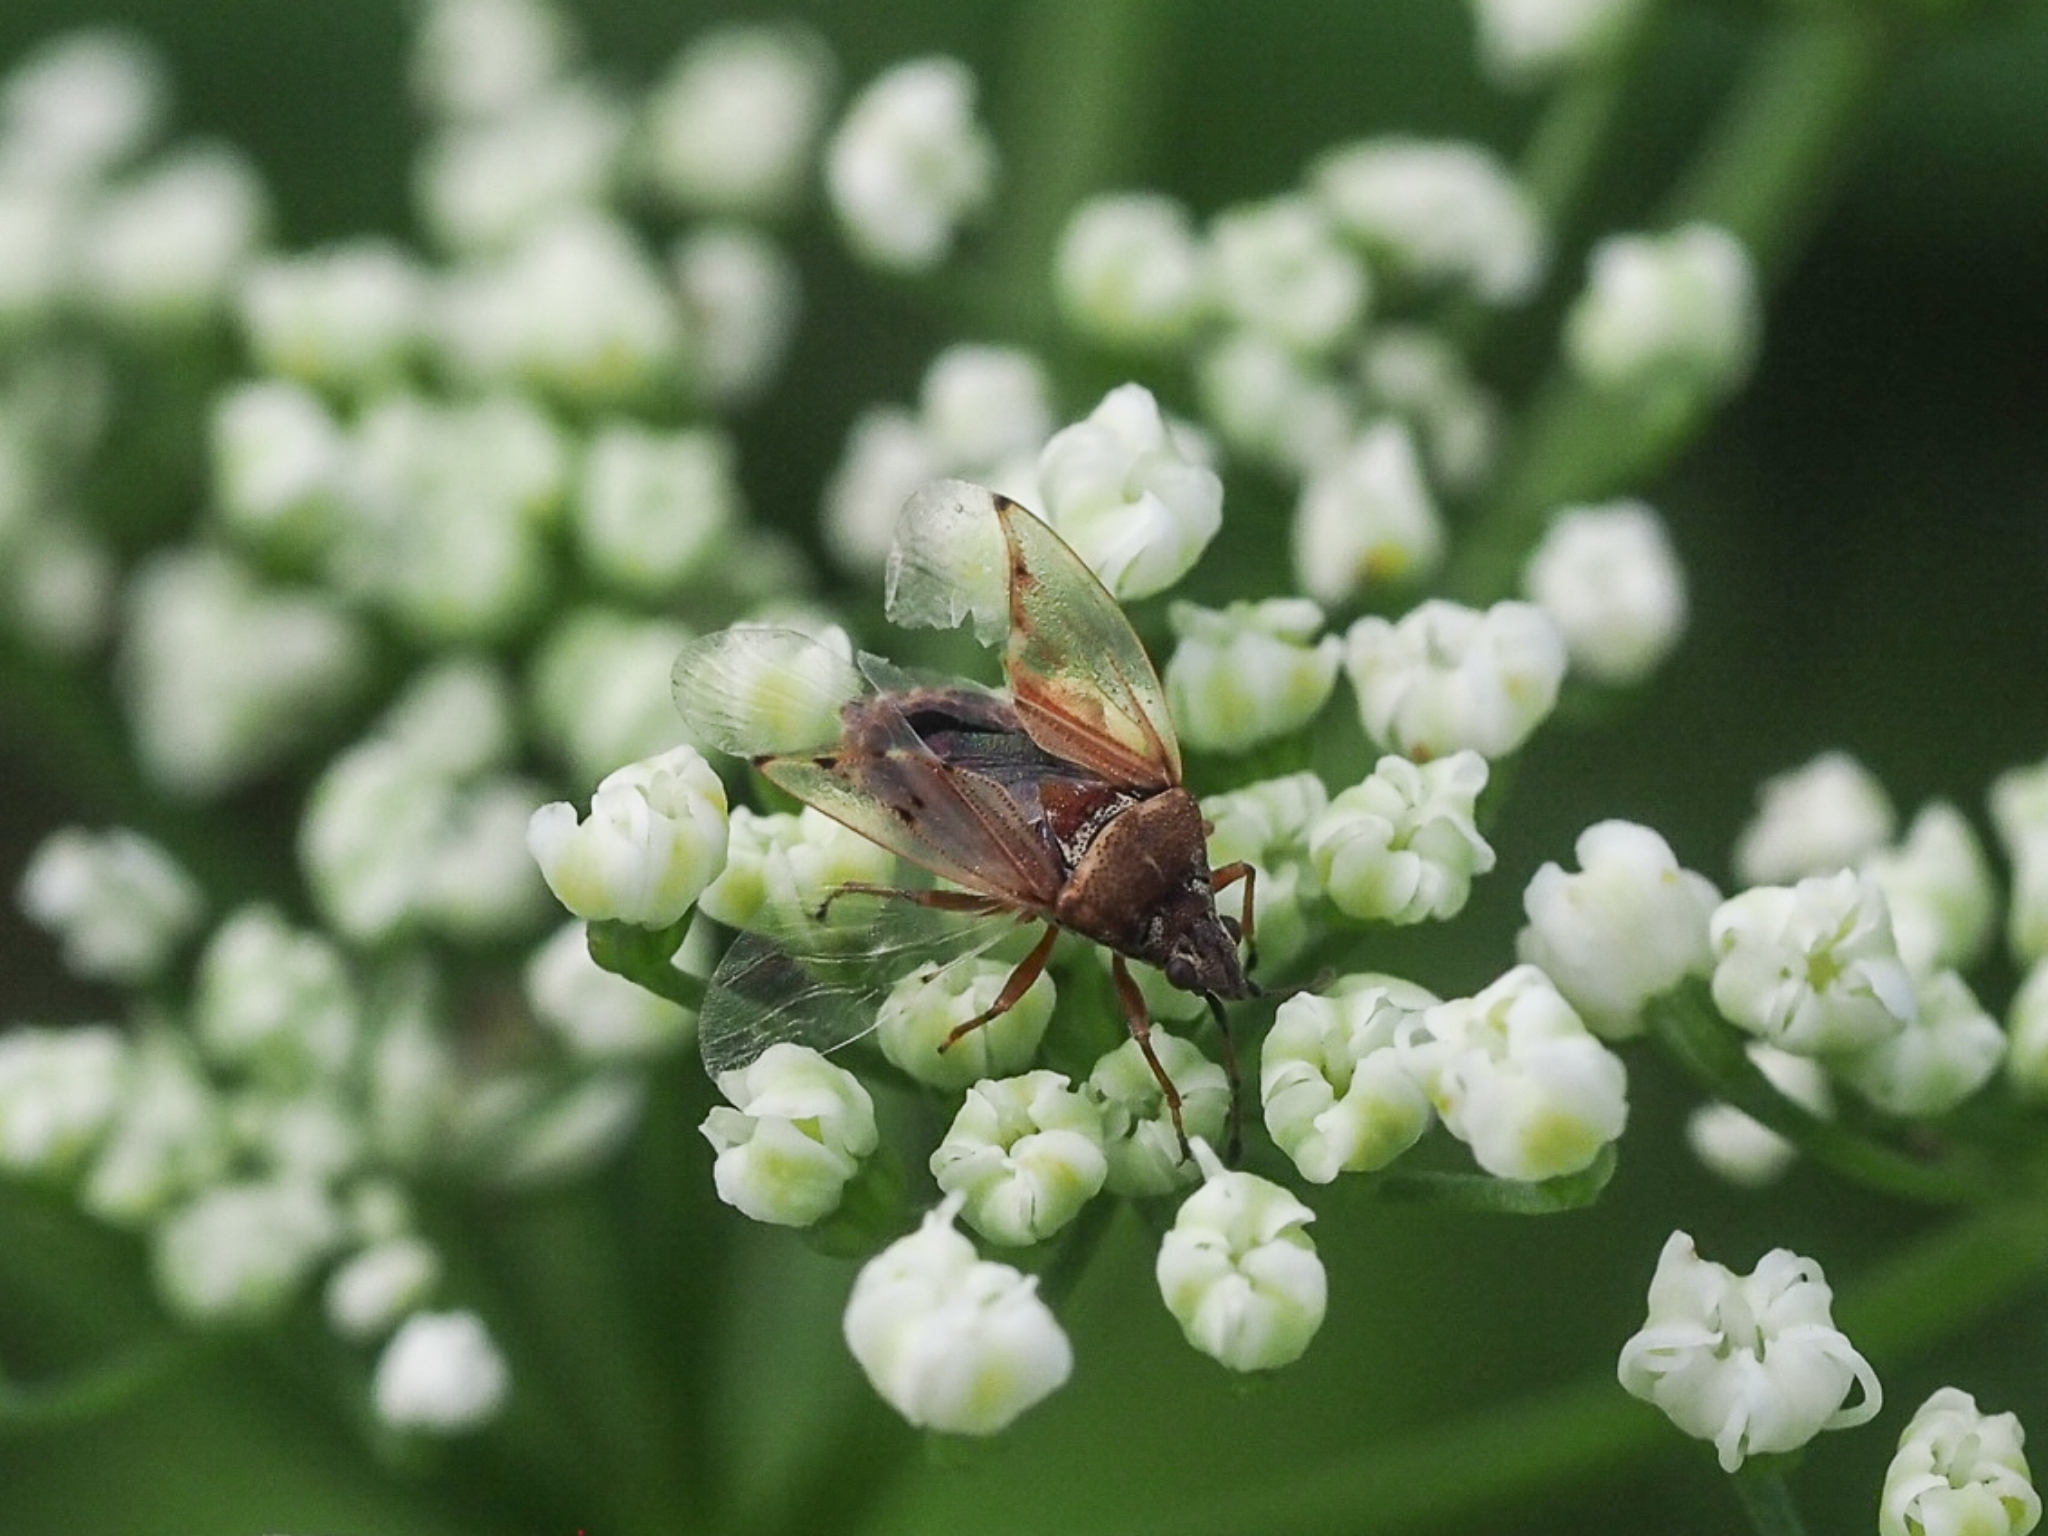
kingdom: Animalia
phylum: Arthropoda
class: Insecta
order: Hemiptera
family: Lygaeidae
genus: Kleidocerys
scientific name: Kleidocerys resedae
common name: Birch catkin bug
